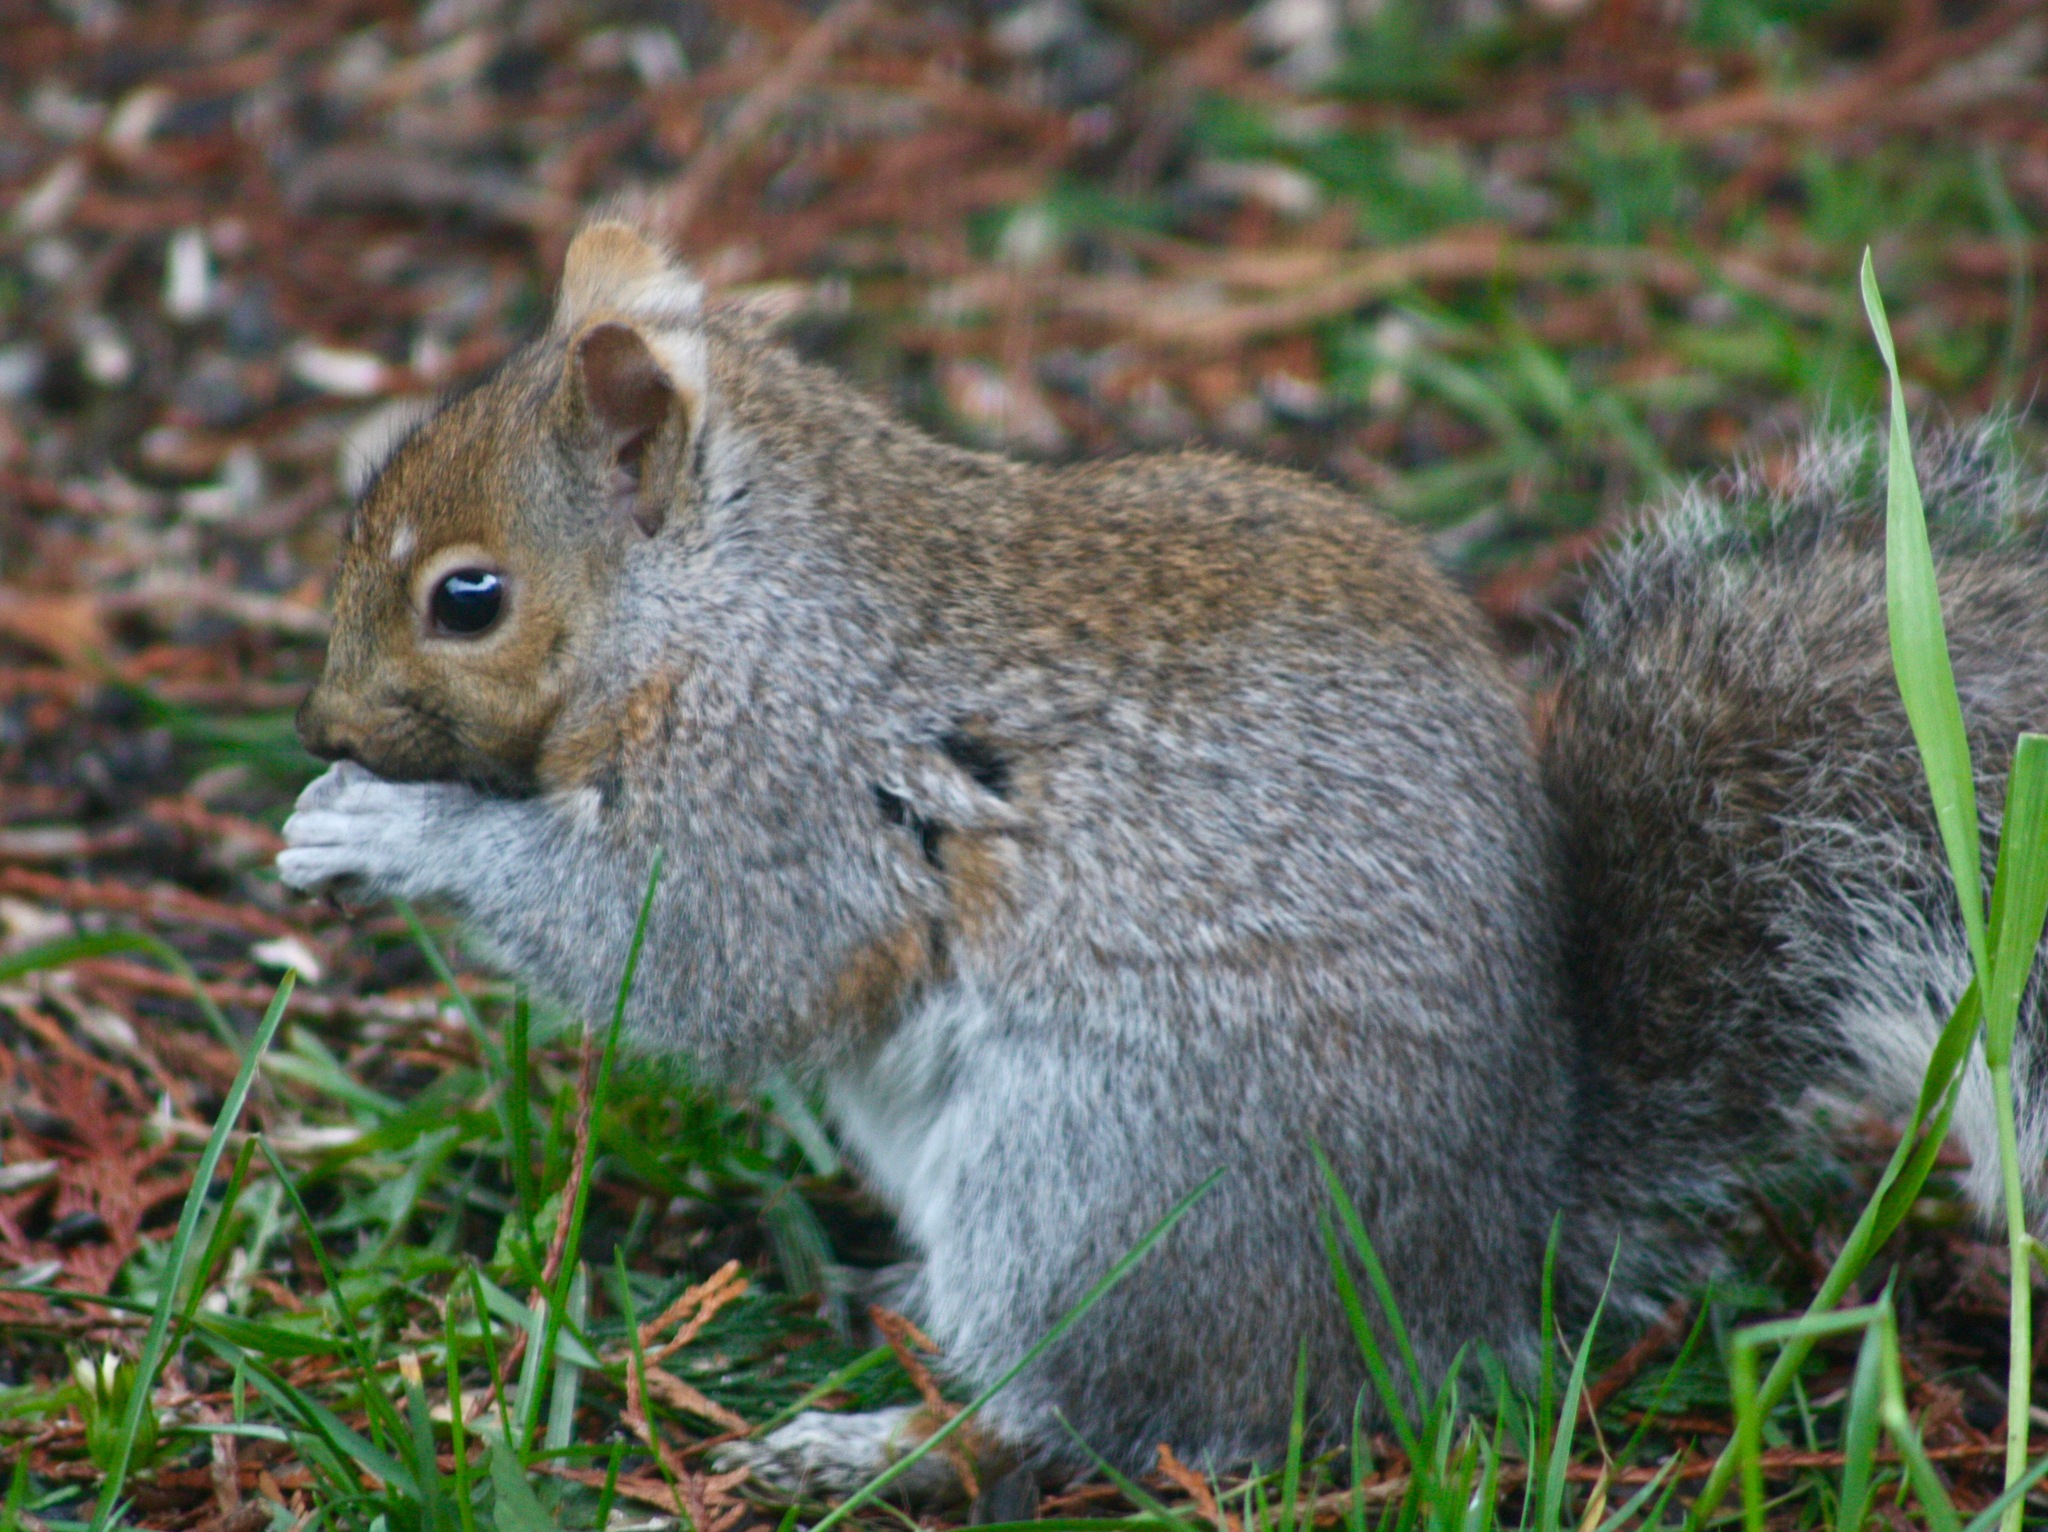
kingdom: Animalia
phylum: Chordata
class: Mammalia
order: Rodentia
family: Sciuridae
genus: Sciurus
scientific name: Sciurus carolinensis
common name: Eastern gray squirrel
